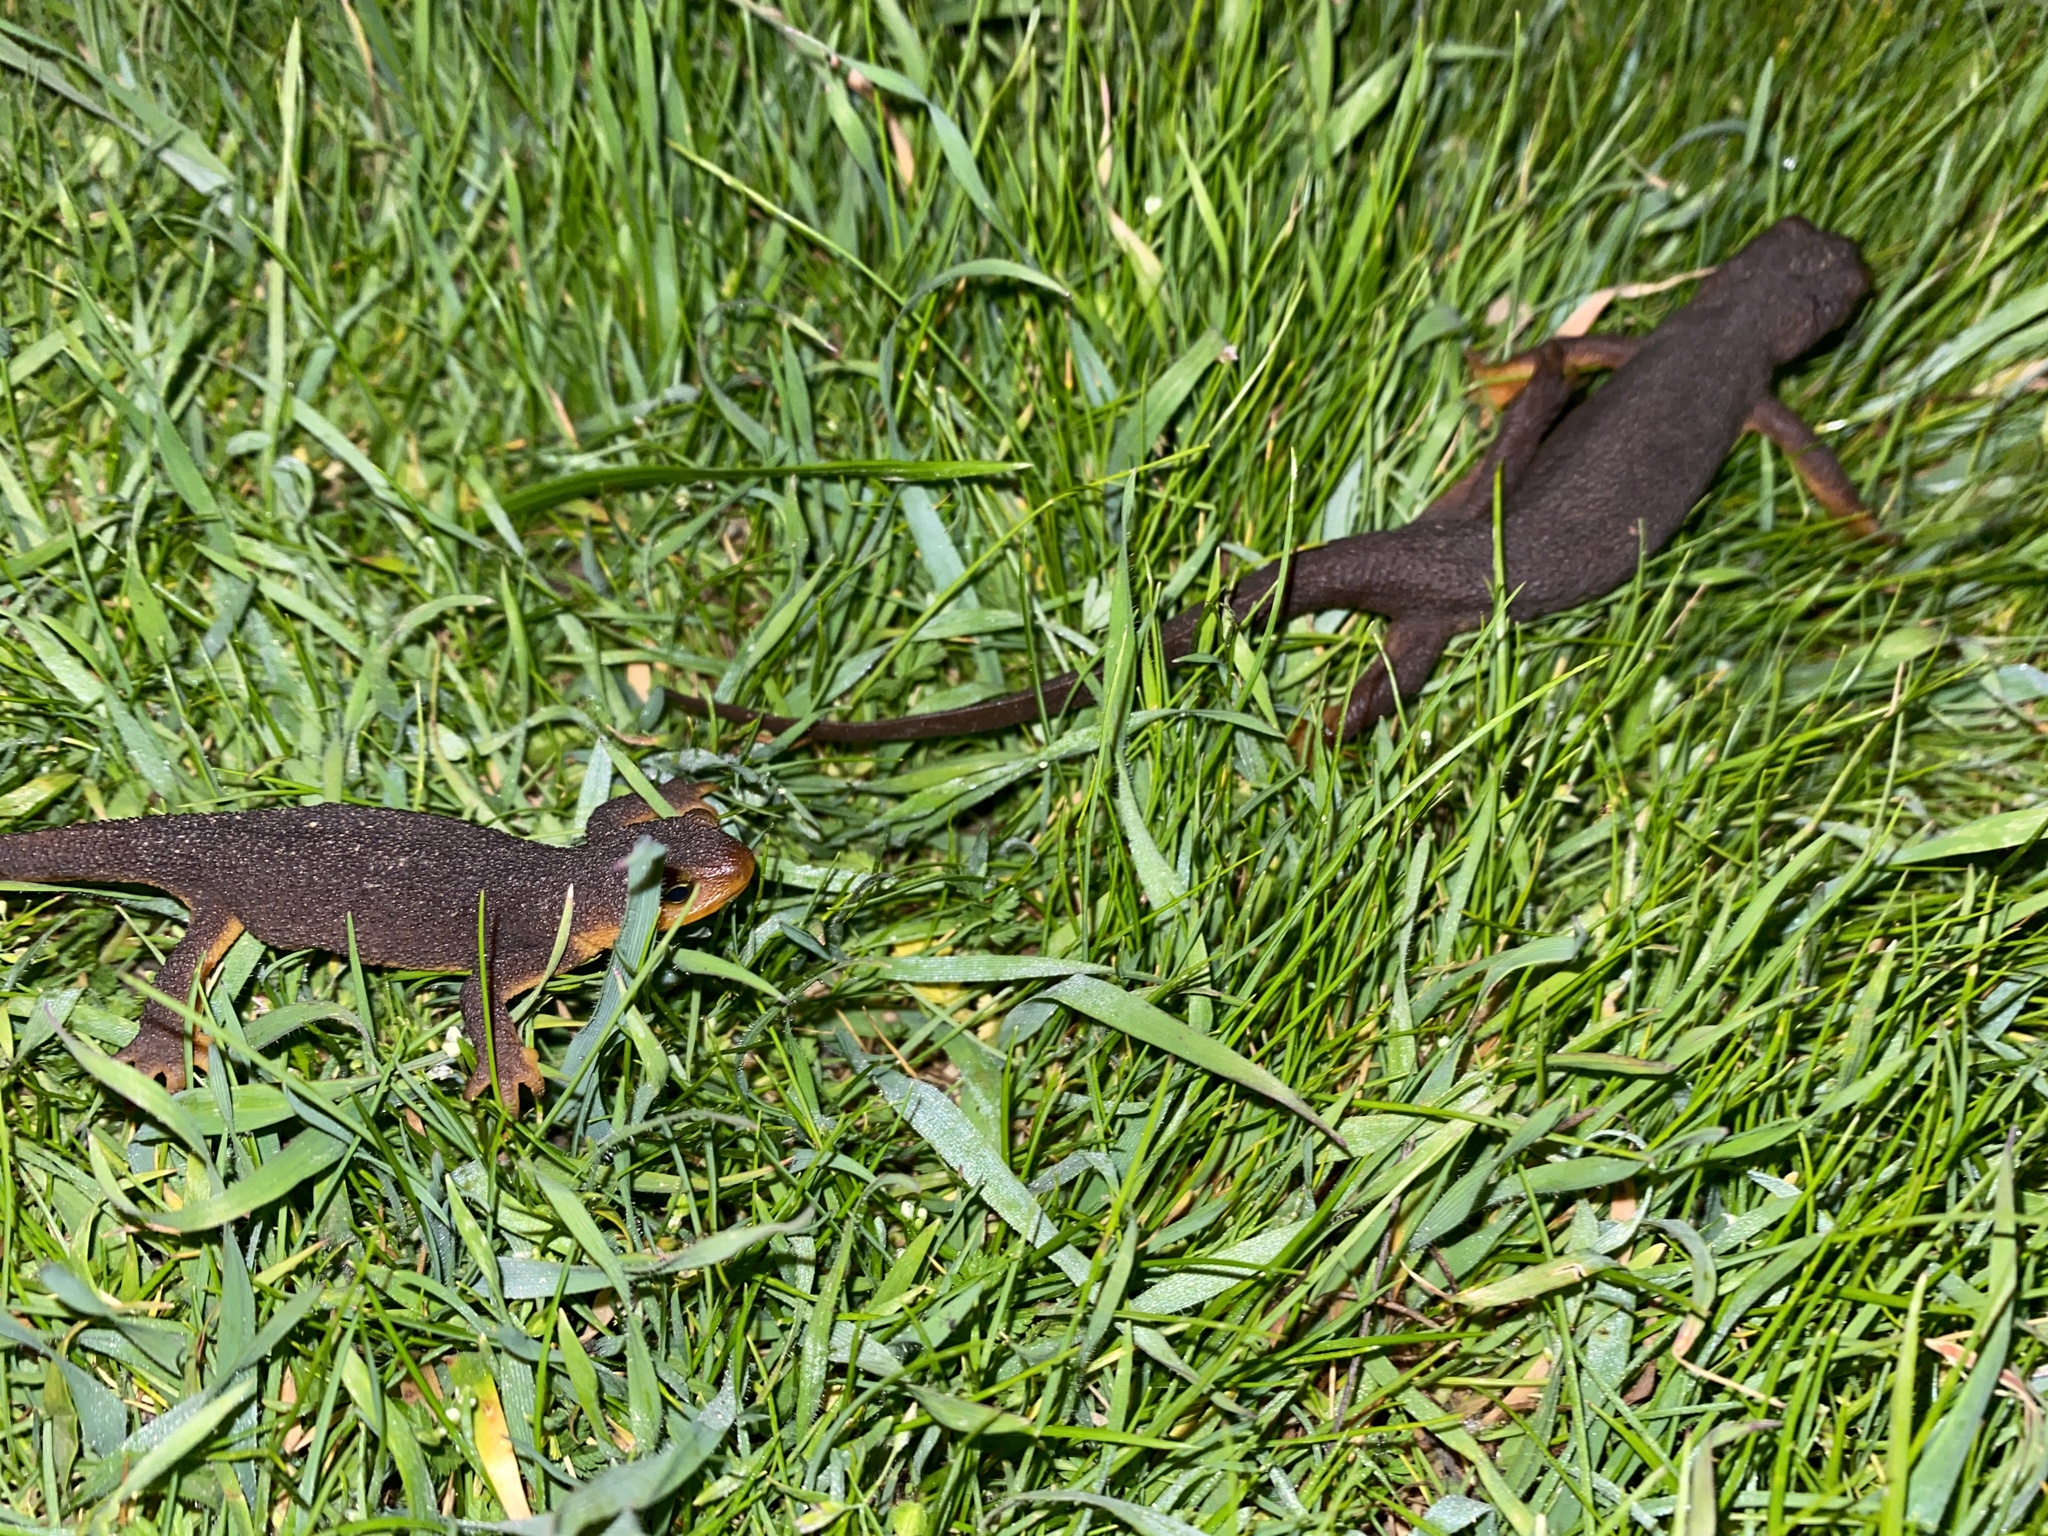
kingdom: Animalia
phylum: Chordata
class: Amphibia
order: Caudata
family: Salamandridae
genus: Taricha
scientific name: Taricha torosa
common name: California newt
